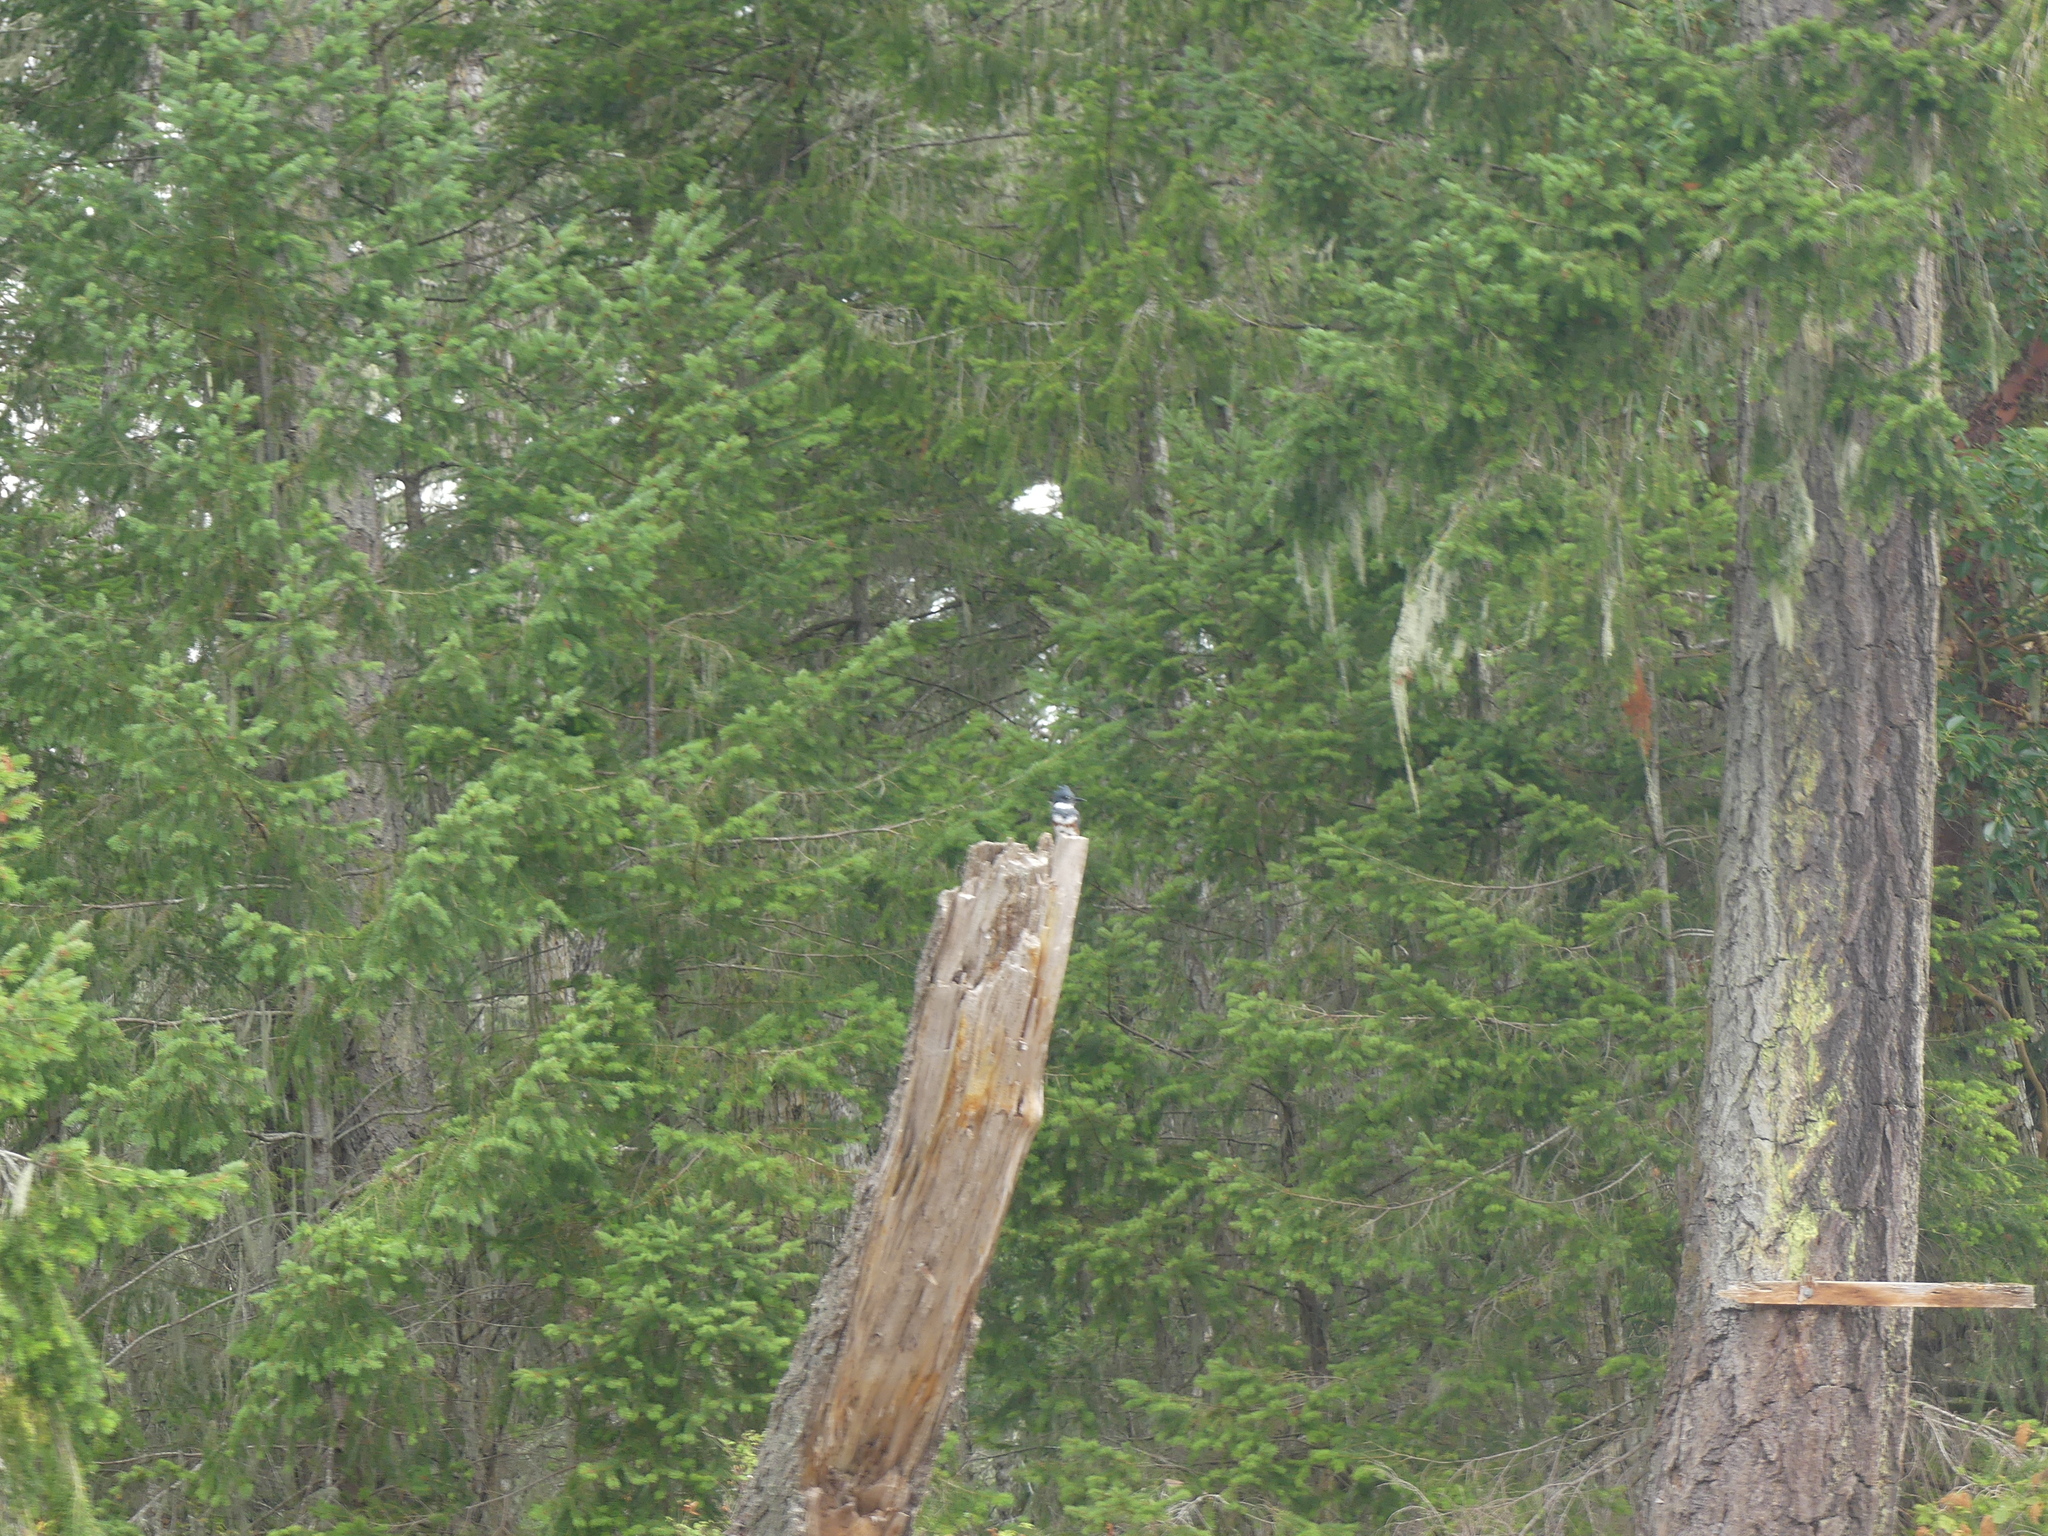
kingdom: Animalia
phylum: Chordata
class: Aves
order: Coraciiformes
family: Alcedinidae
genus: Megaceryle
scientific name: Megaceryle alcyon
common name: Belted kingfisher
